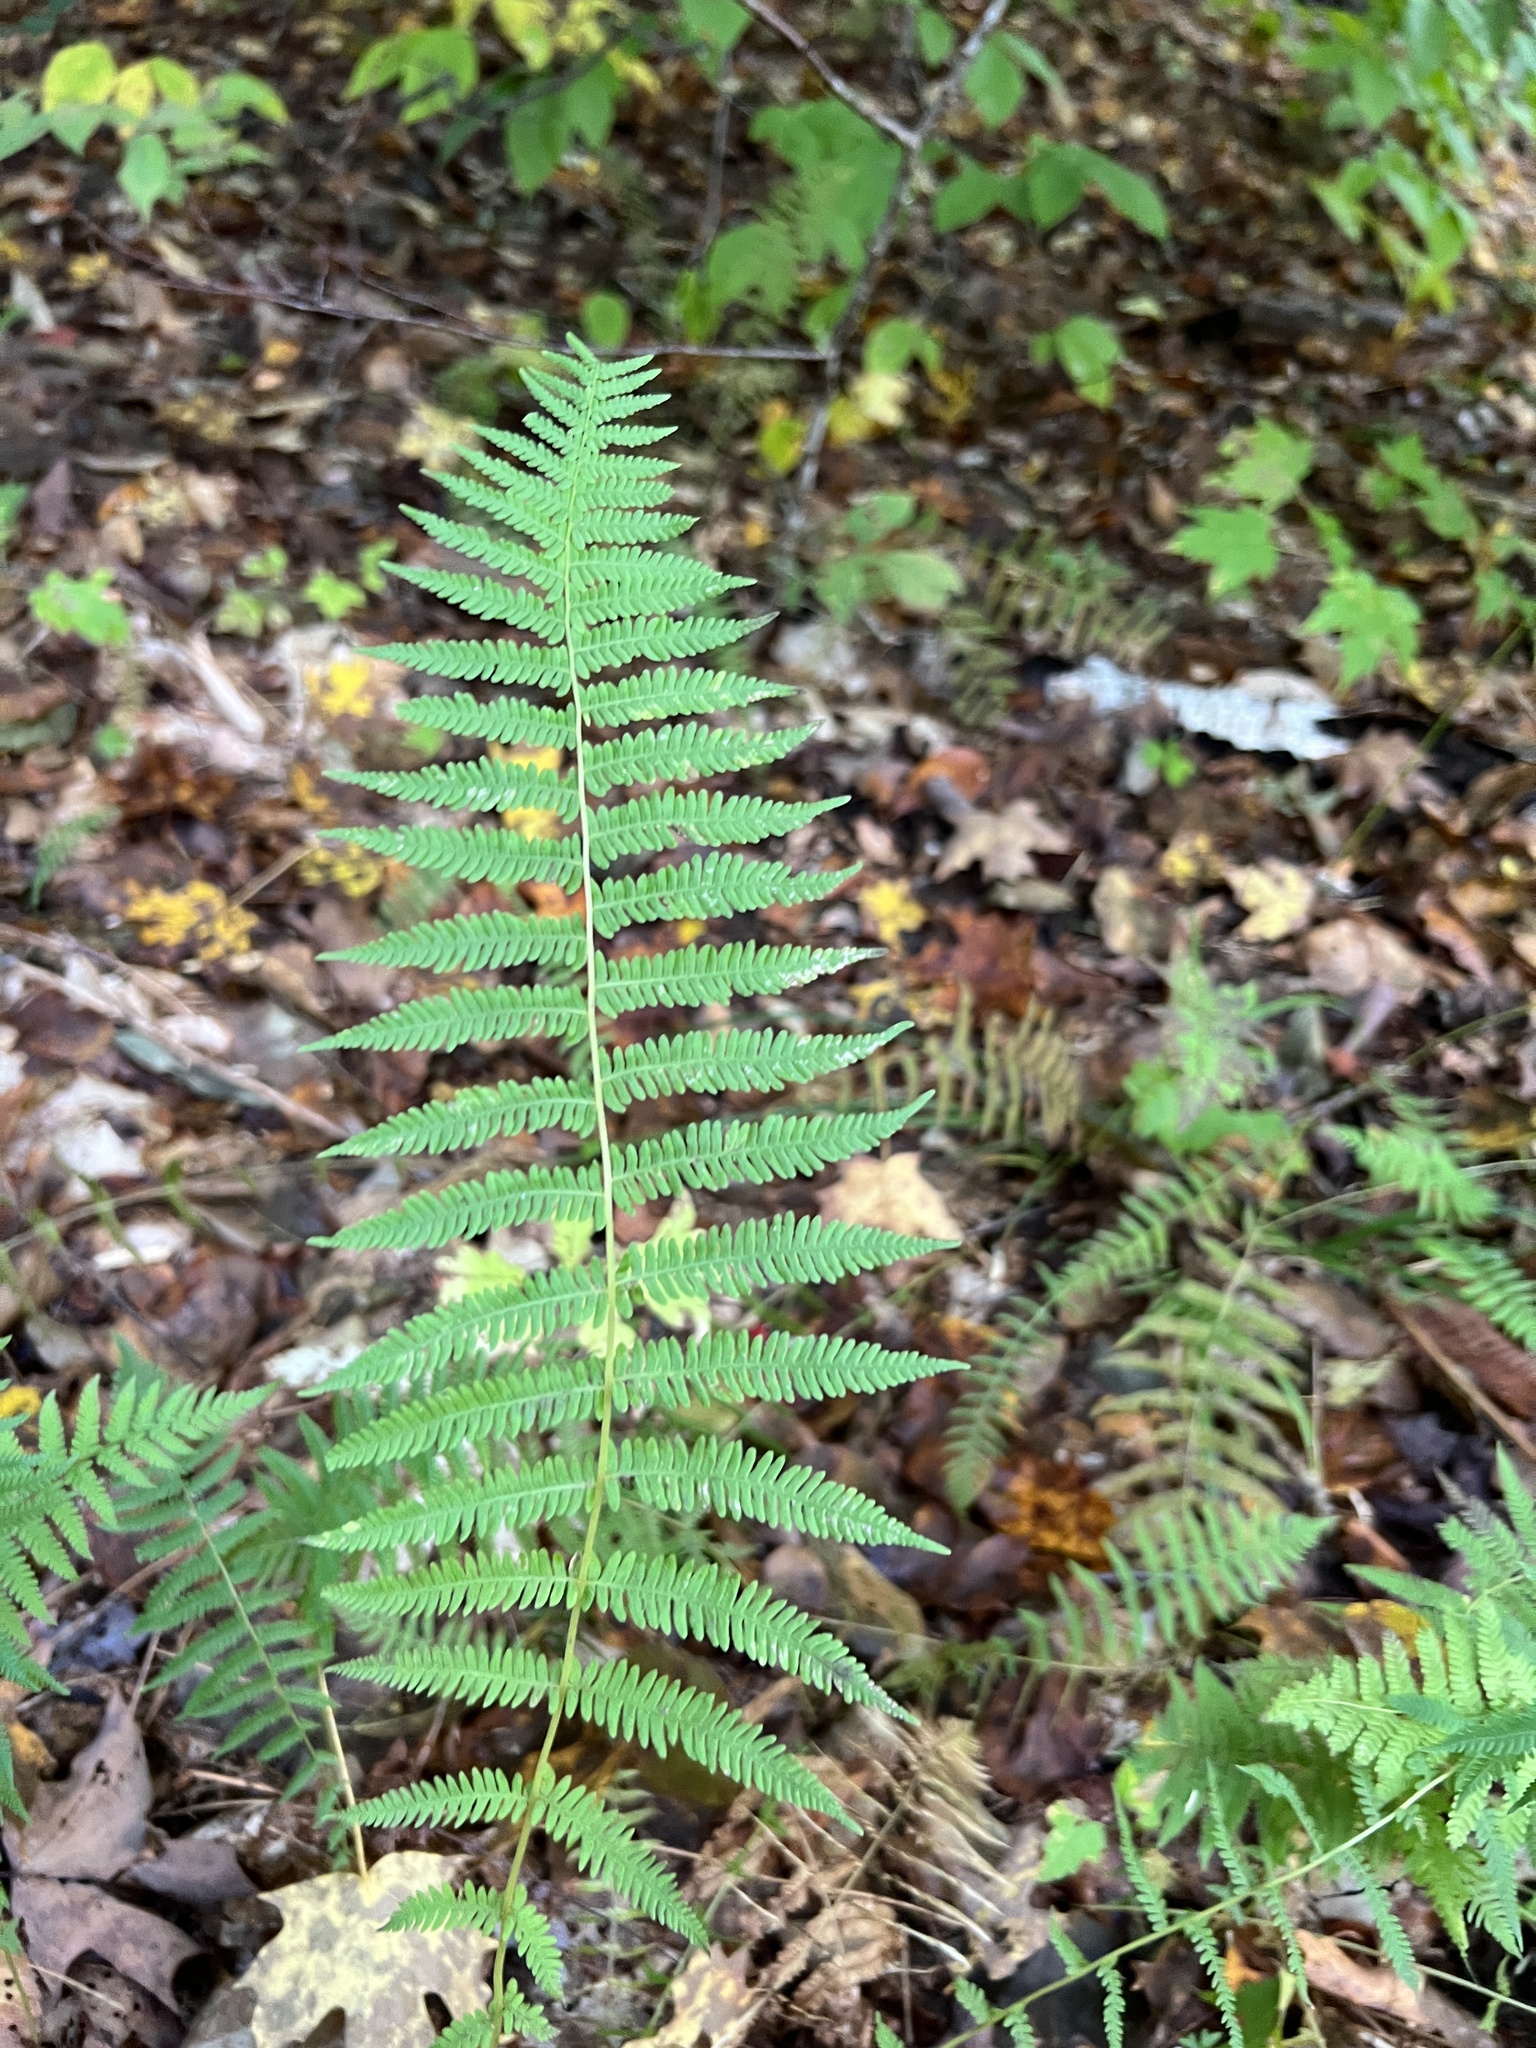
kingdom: Plantae
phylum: Tracheophyta
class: Polypodiopsida
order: Polypodiales
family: Thelypteridaceae
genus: Amauropelta
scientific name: Amauropelta noveboracensis
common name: New york fern
